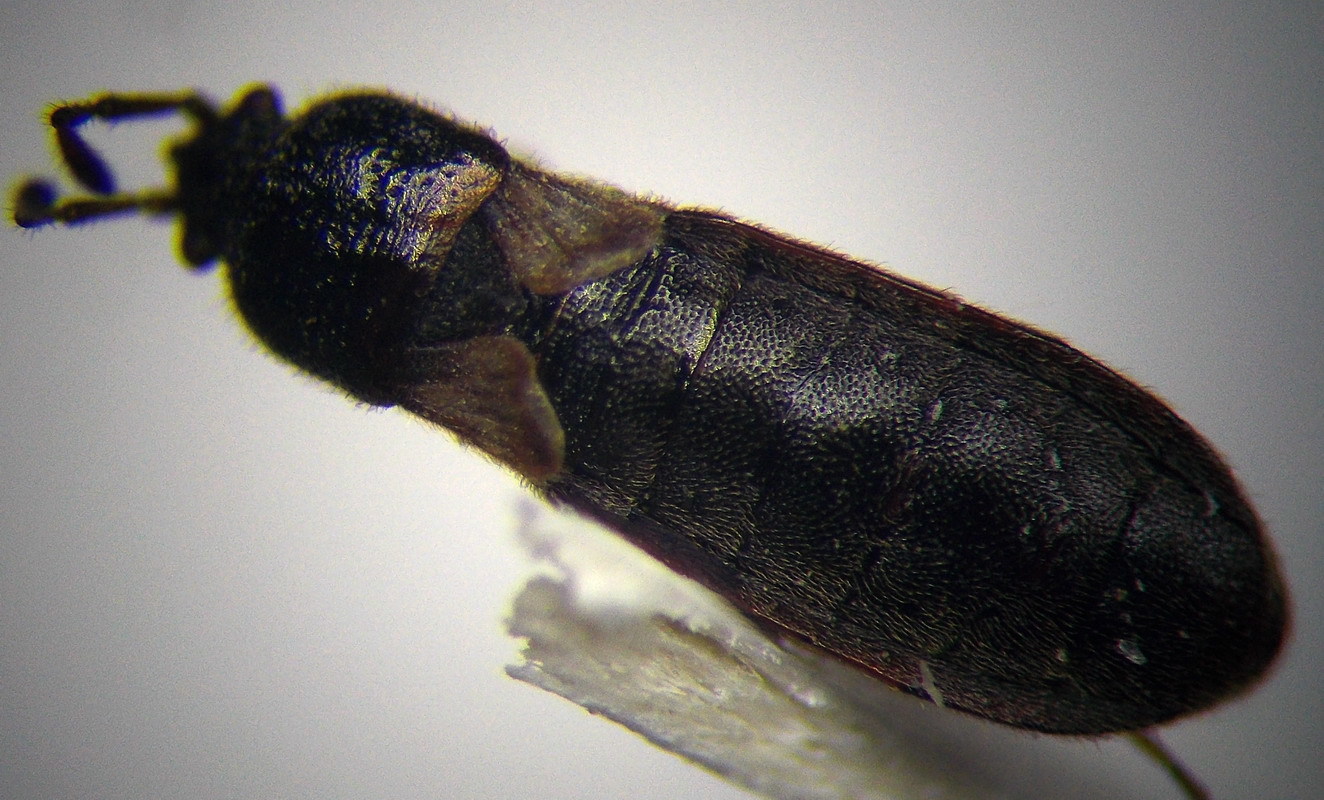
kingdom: Animalia
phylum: Arthropoda
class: Insecta
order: Hemiptera
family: Blissidae
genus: Dimorphopterus
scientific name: Dimorphopterus blissoides
